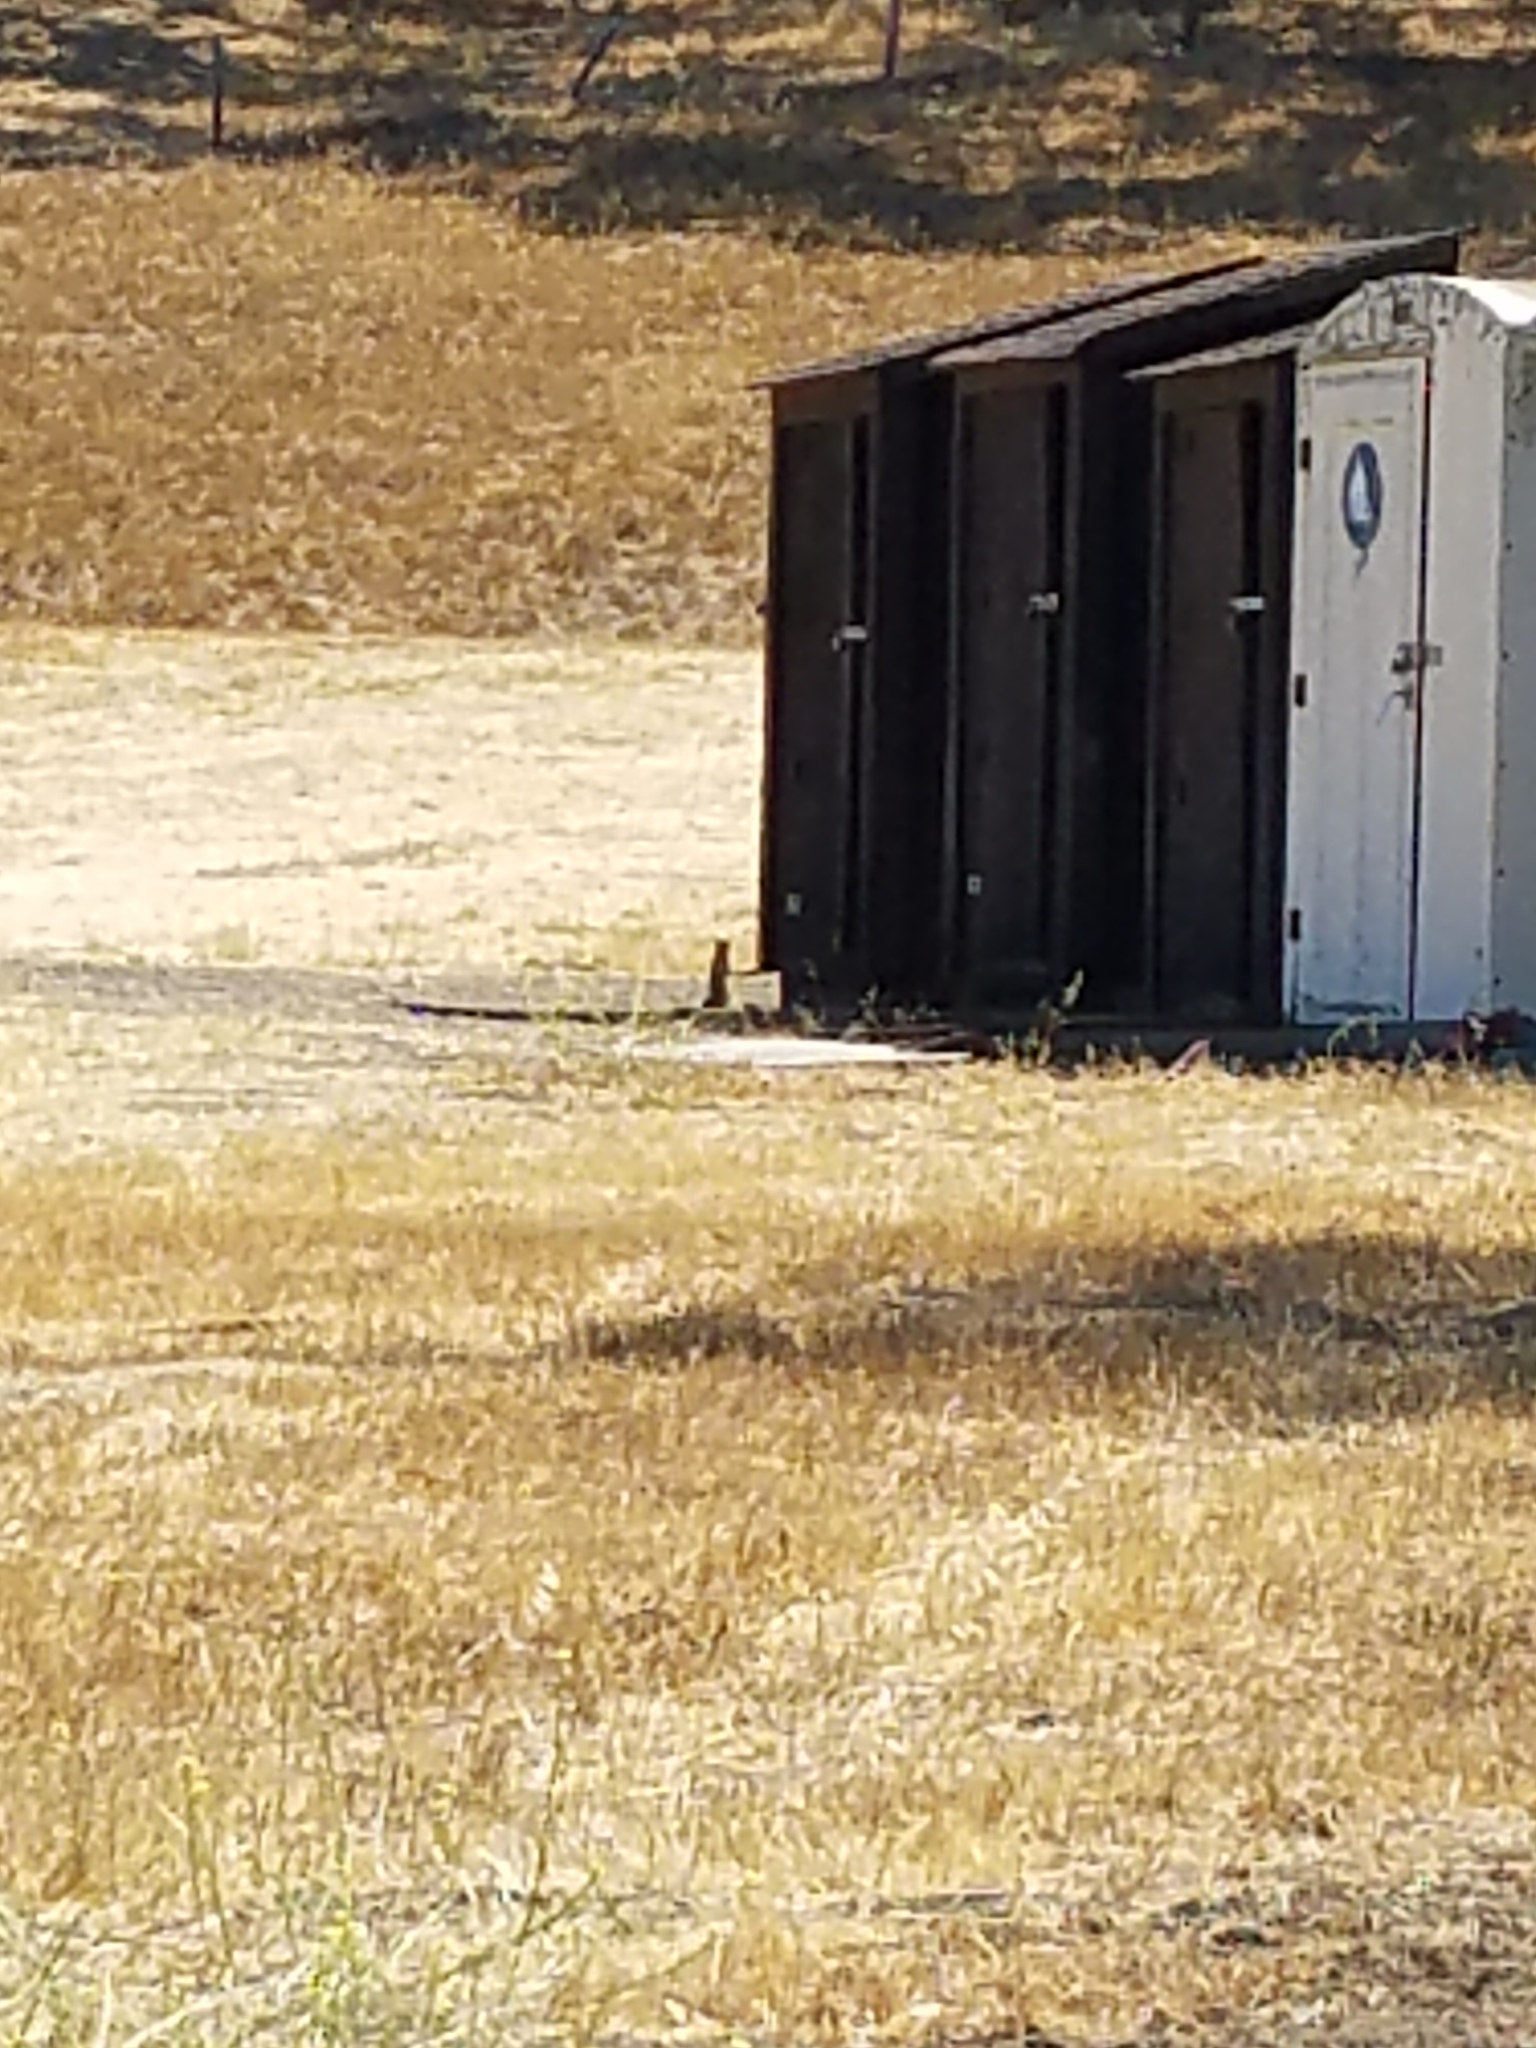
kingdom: Animalia
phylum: Chordata
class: Mammalia
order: Rodentia
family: Sciuridae
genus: Otospermophilus
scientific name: Otospermophilus beecheyi
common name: California ground squirrel
